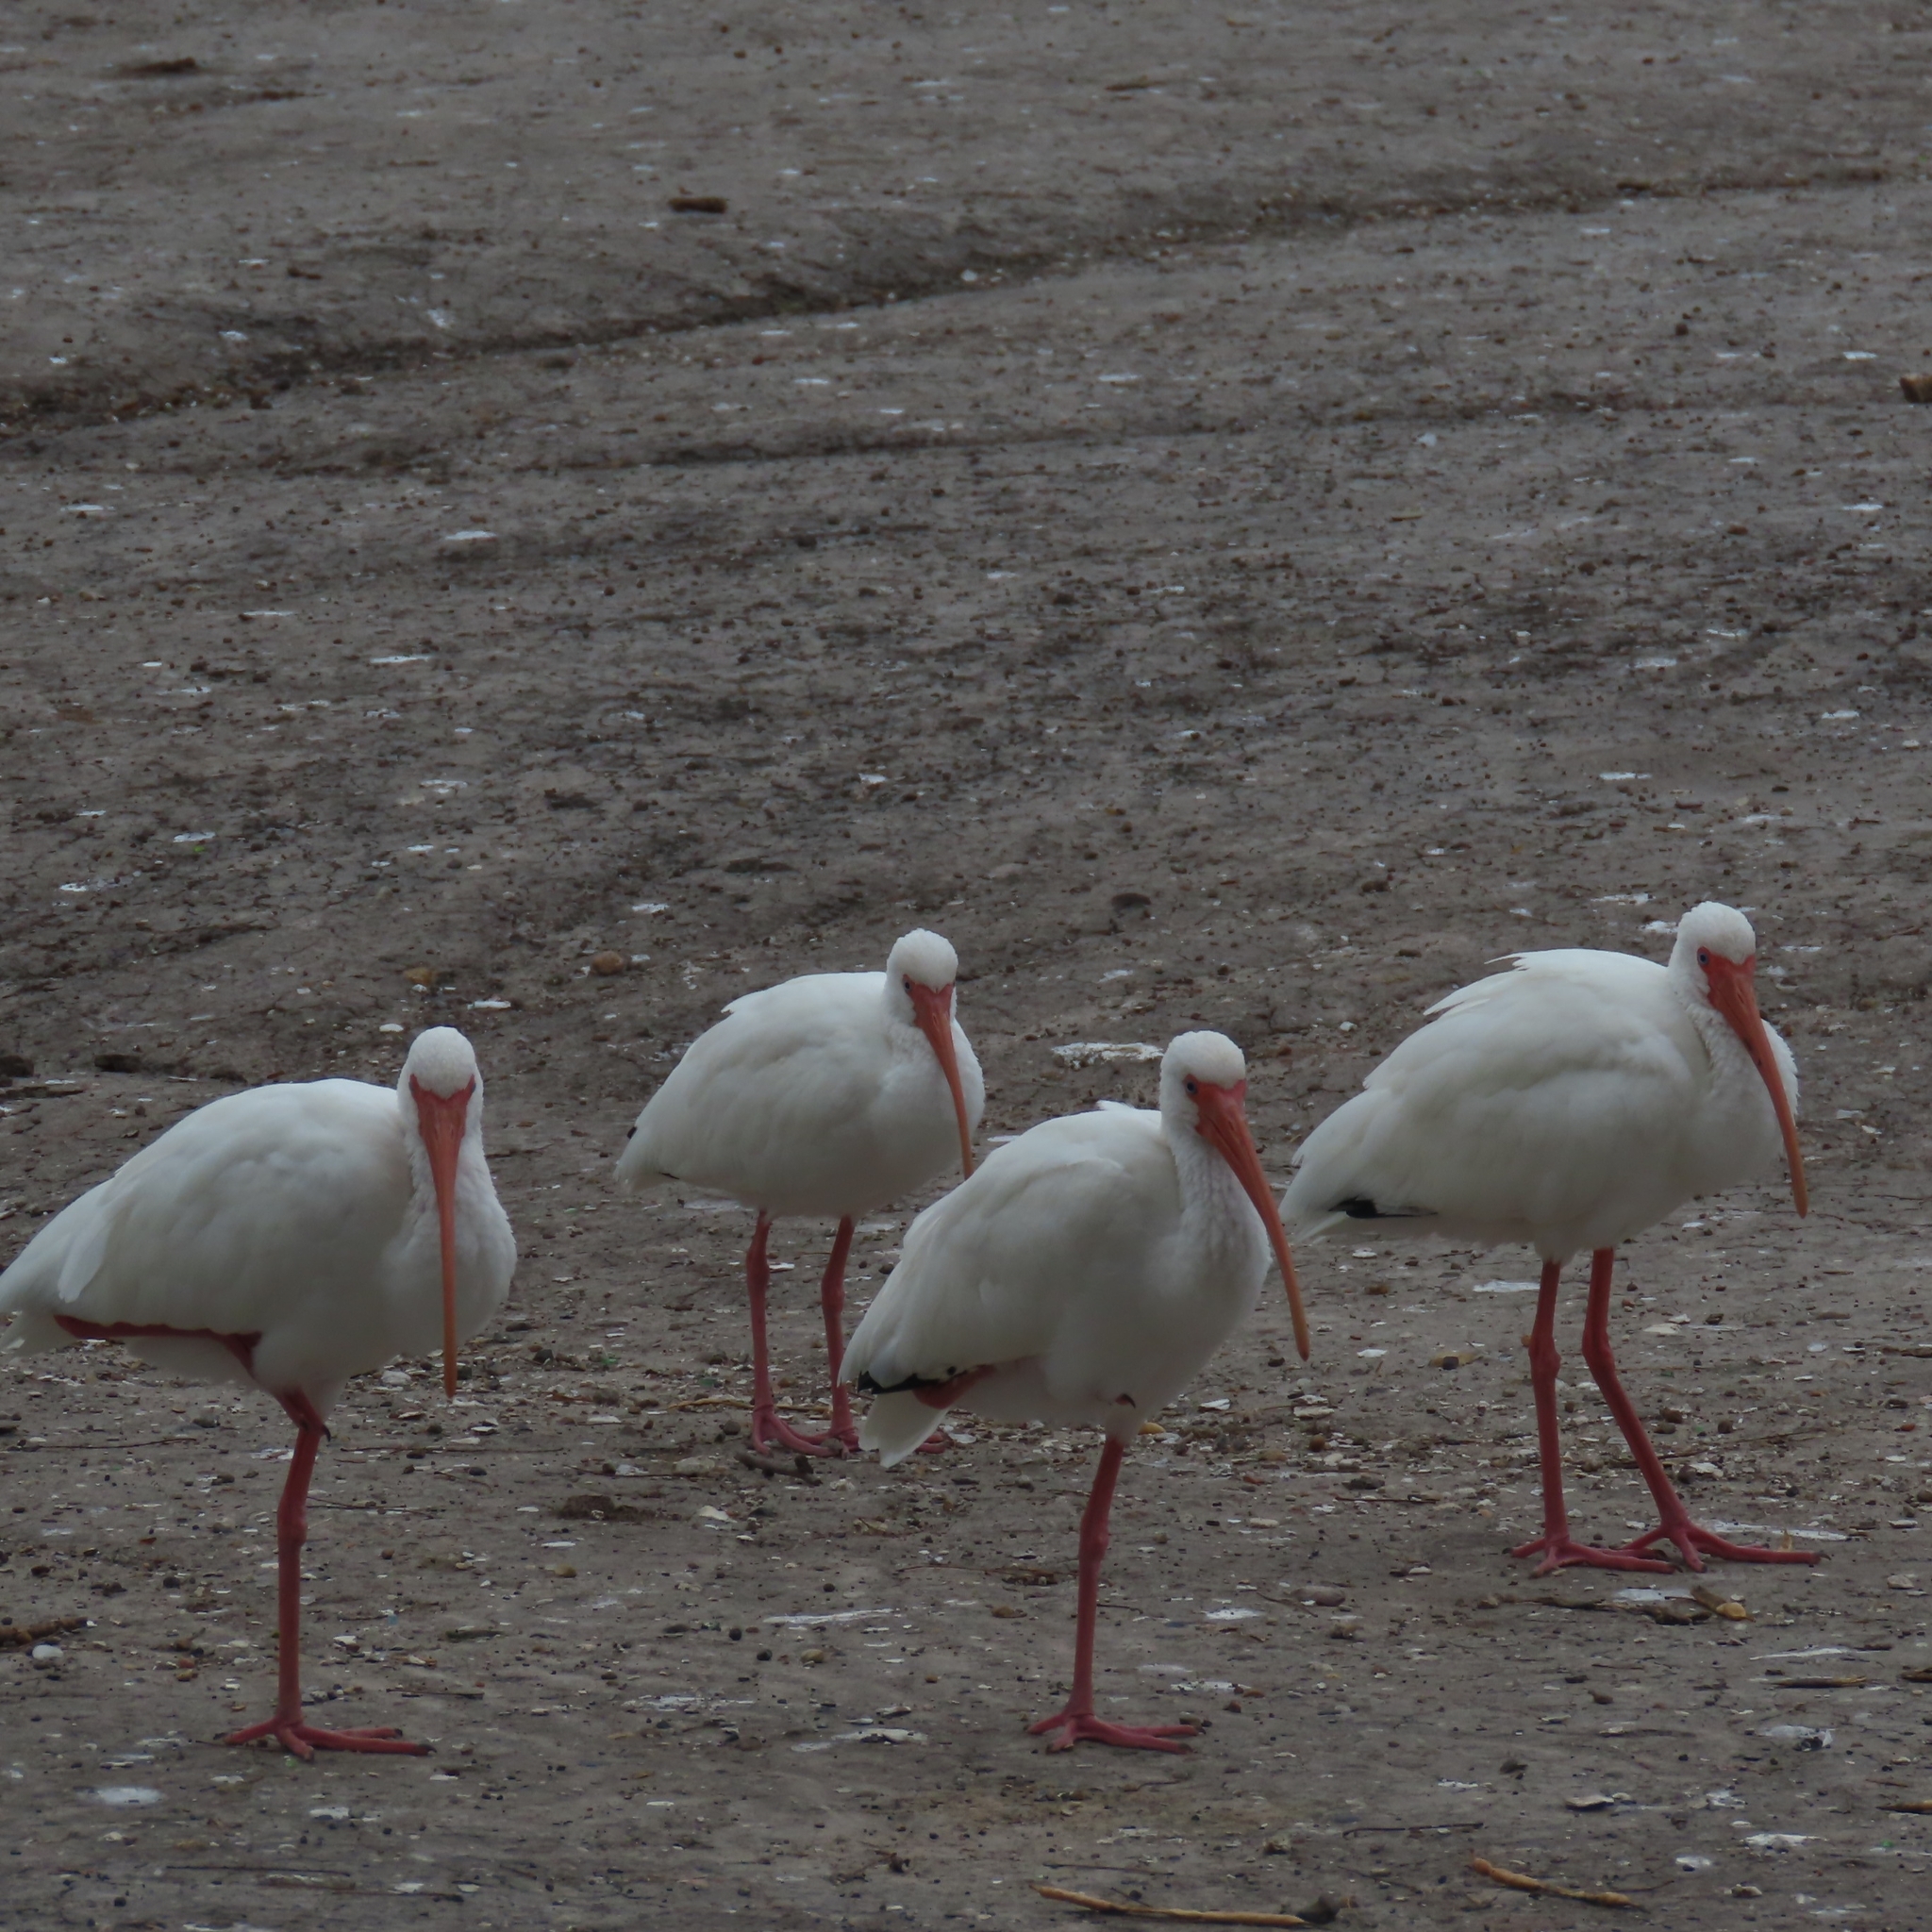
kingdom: Animalia
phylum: Chordata
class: Aves
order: Pelecaniformes
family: Threskiornithidae
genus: Eudocimus
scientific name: Eudocimus albus
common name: White ibis
